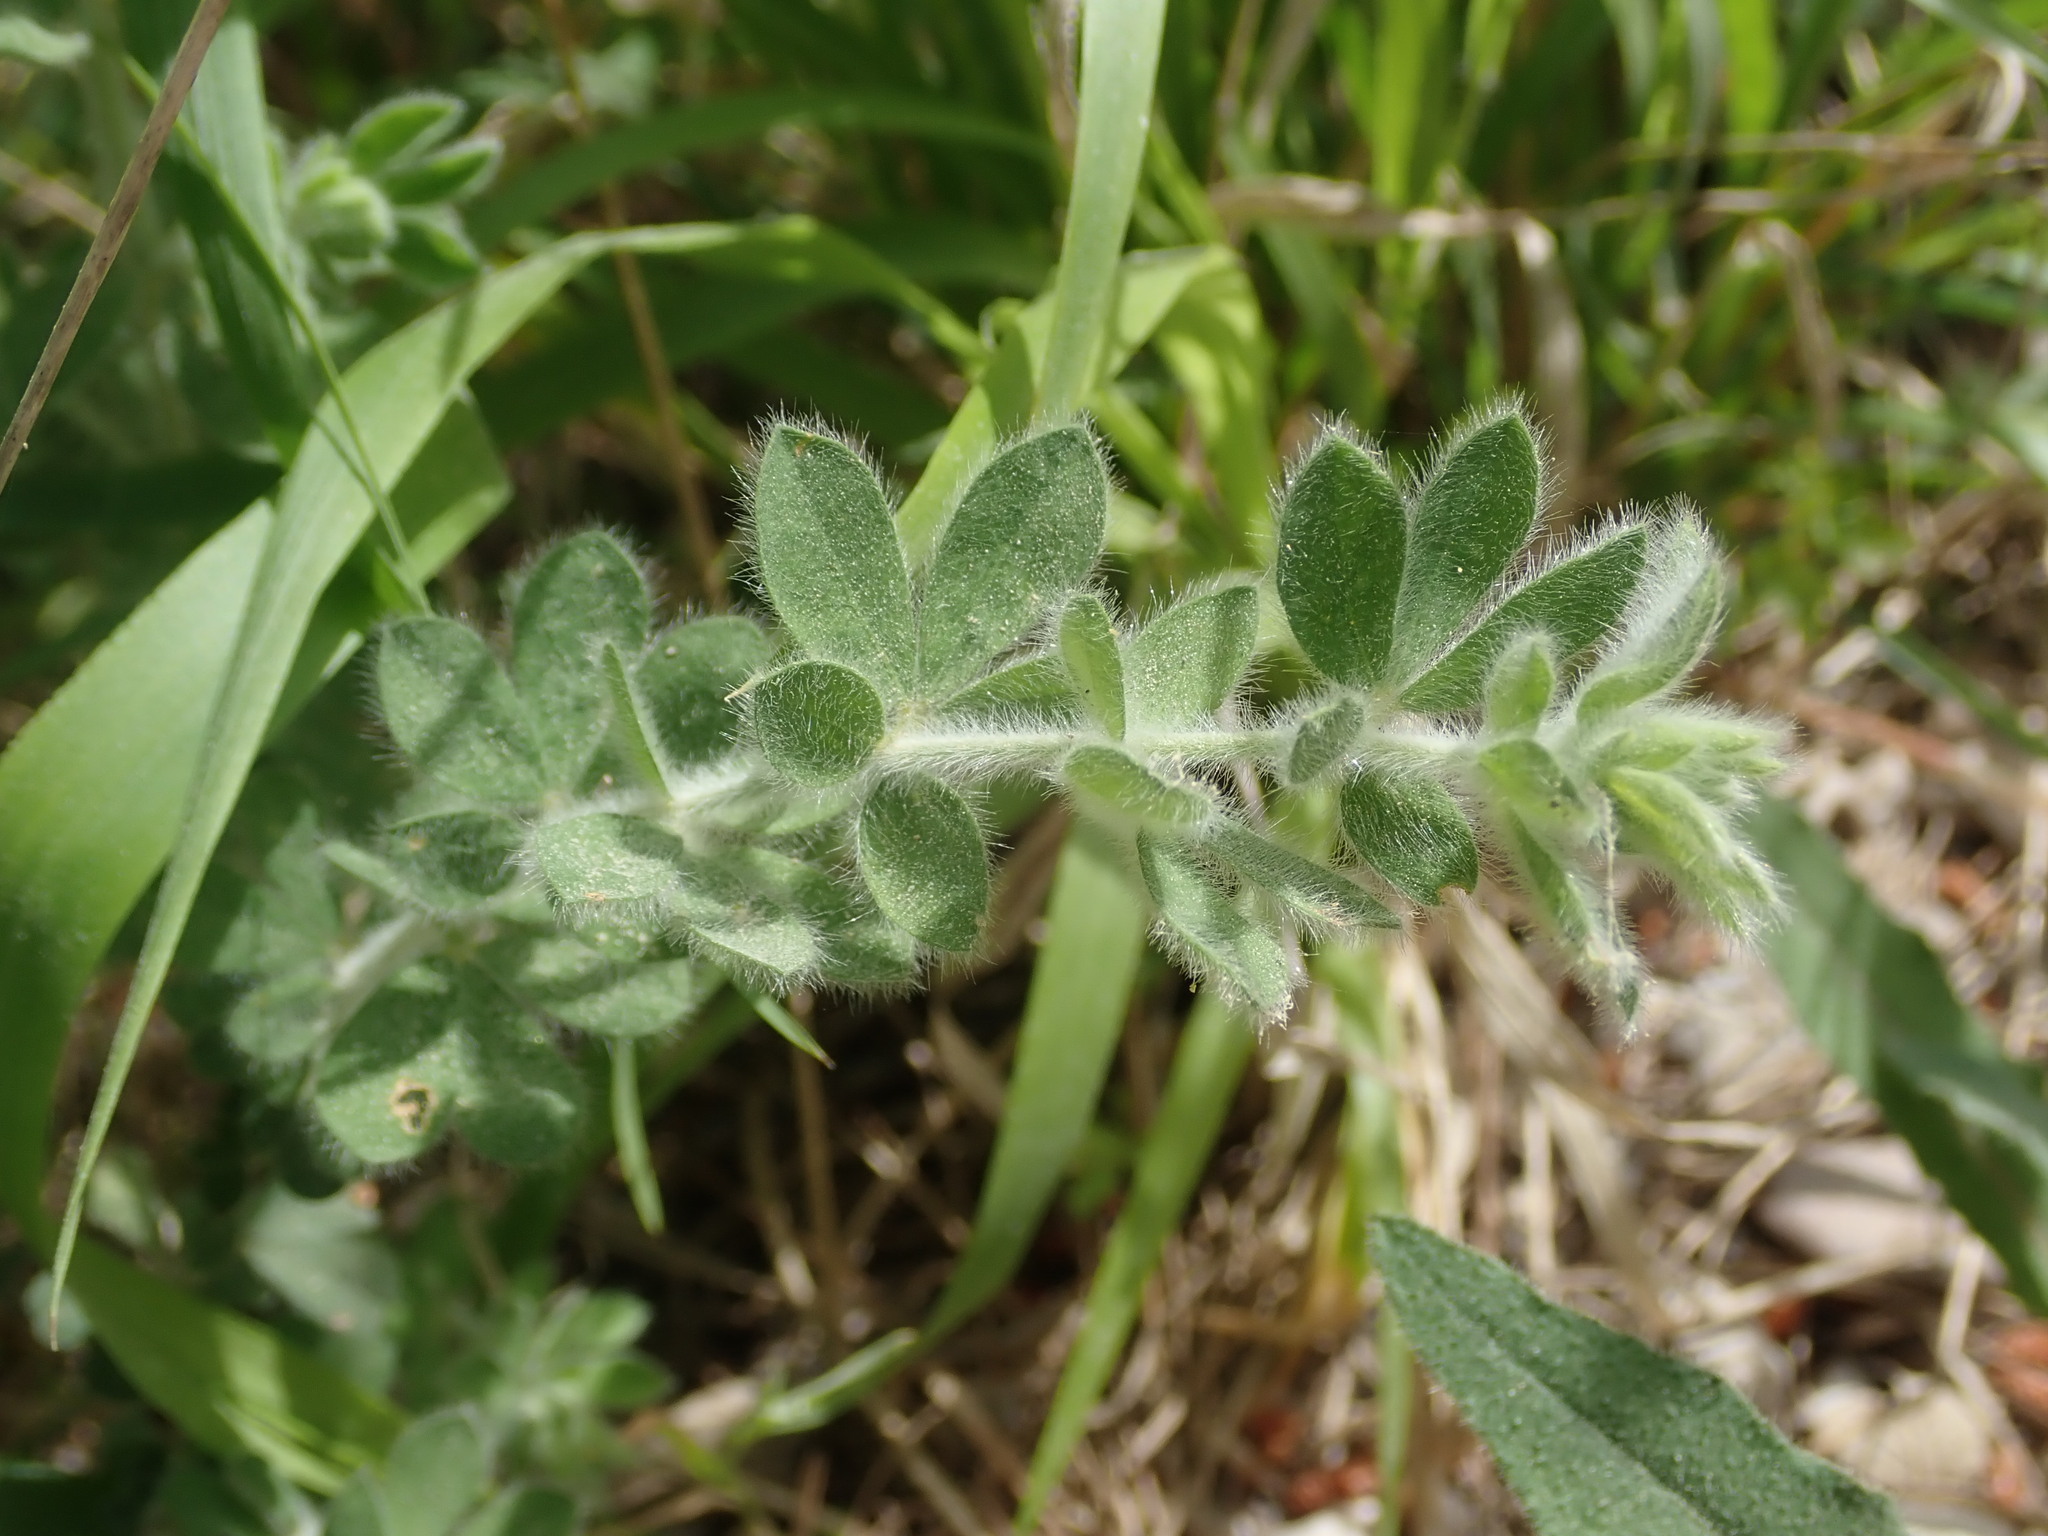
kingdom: Plantae
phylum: Tracheophyta
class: Magnoliopsida
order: Fabales
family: Fabaceae
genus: Lotus
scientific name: Lotus hirsutus
